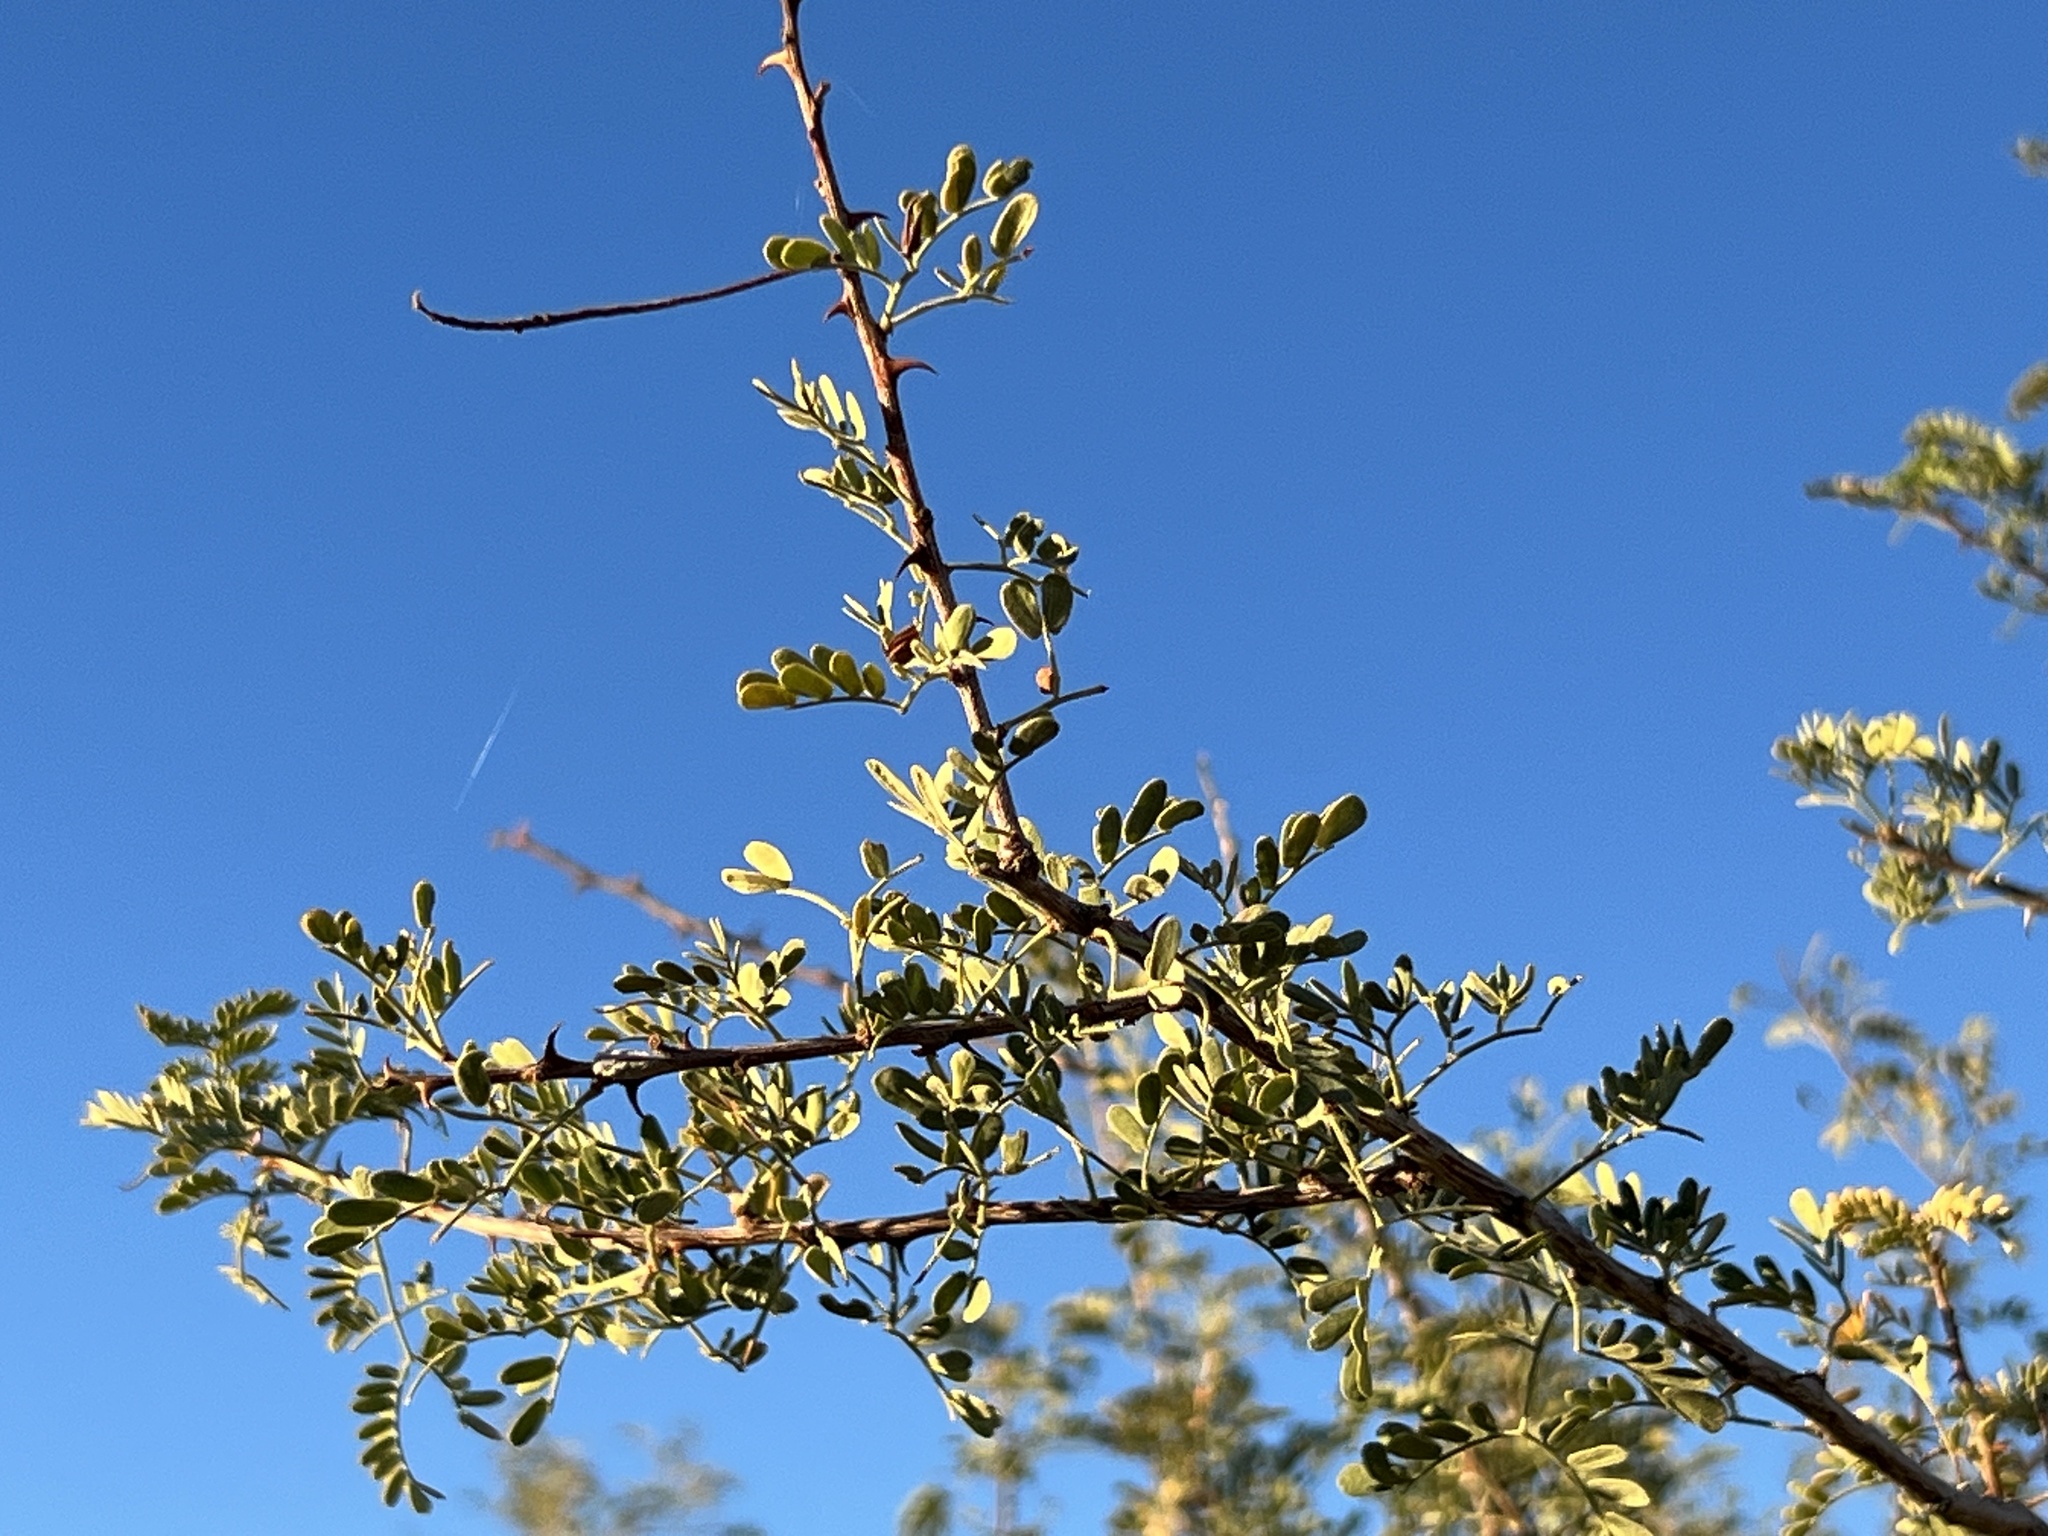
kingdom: Plantae
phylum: Tracheophyta
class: Magnoliopsida
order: Fabales
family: Fabaceae
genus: Senegalia
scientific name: Senegalia greggii
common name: Texas-mimosa
